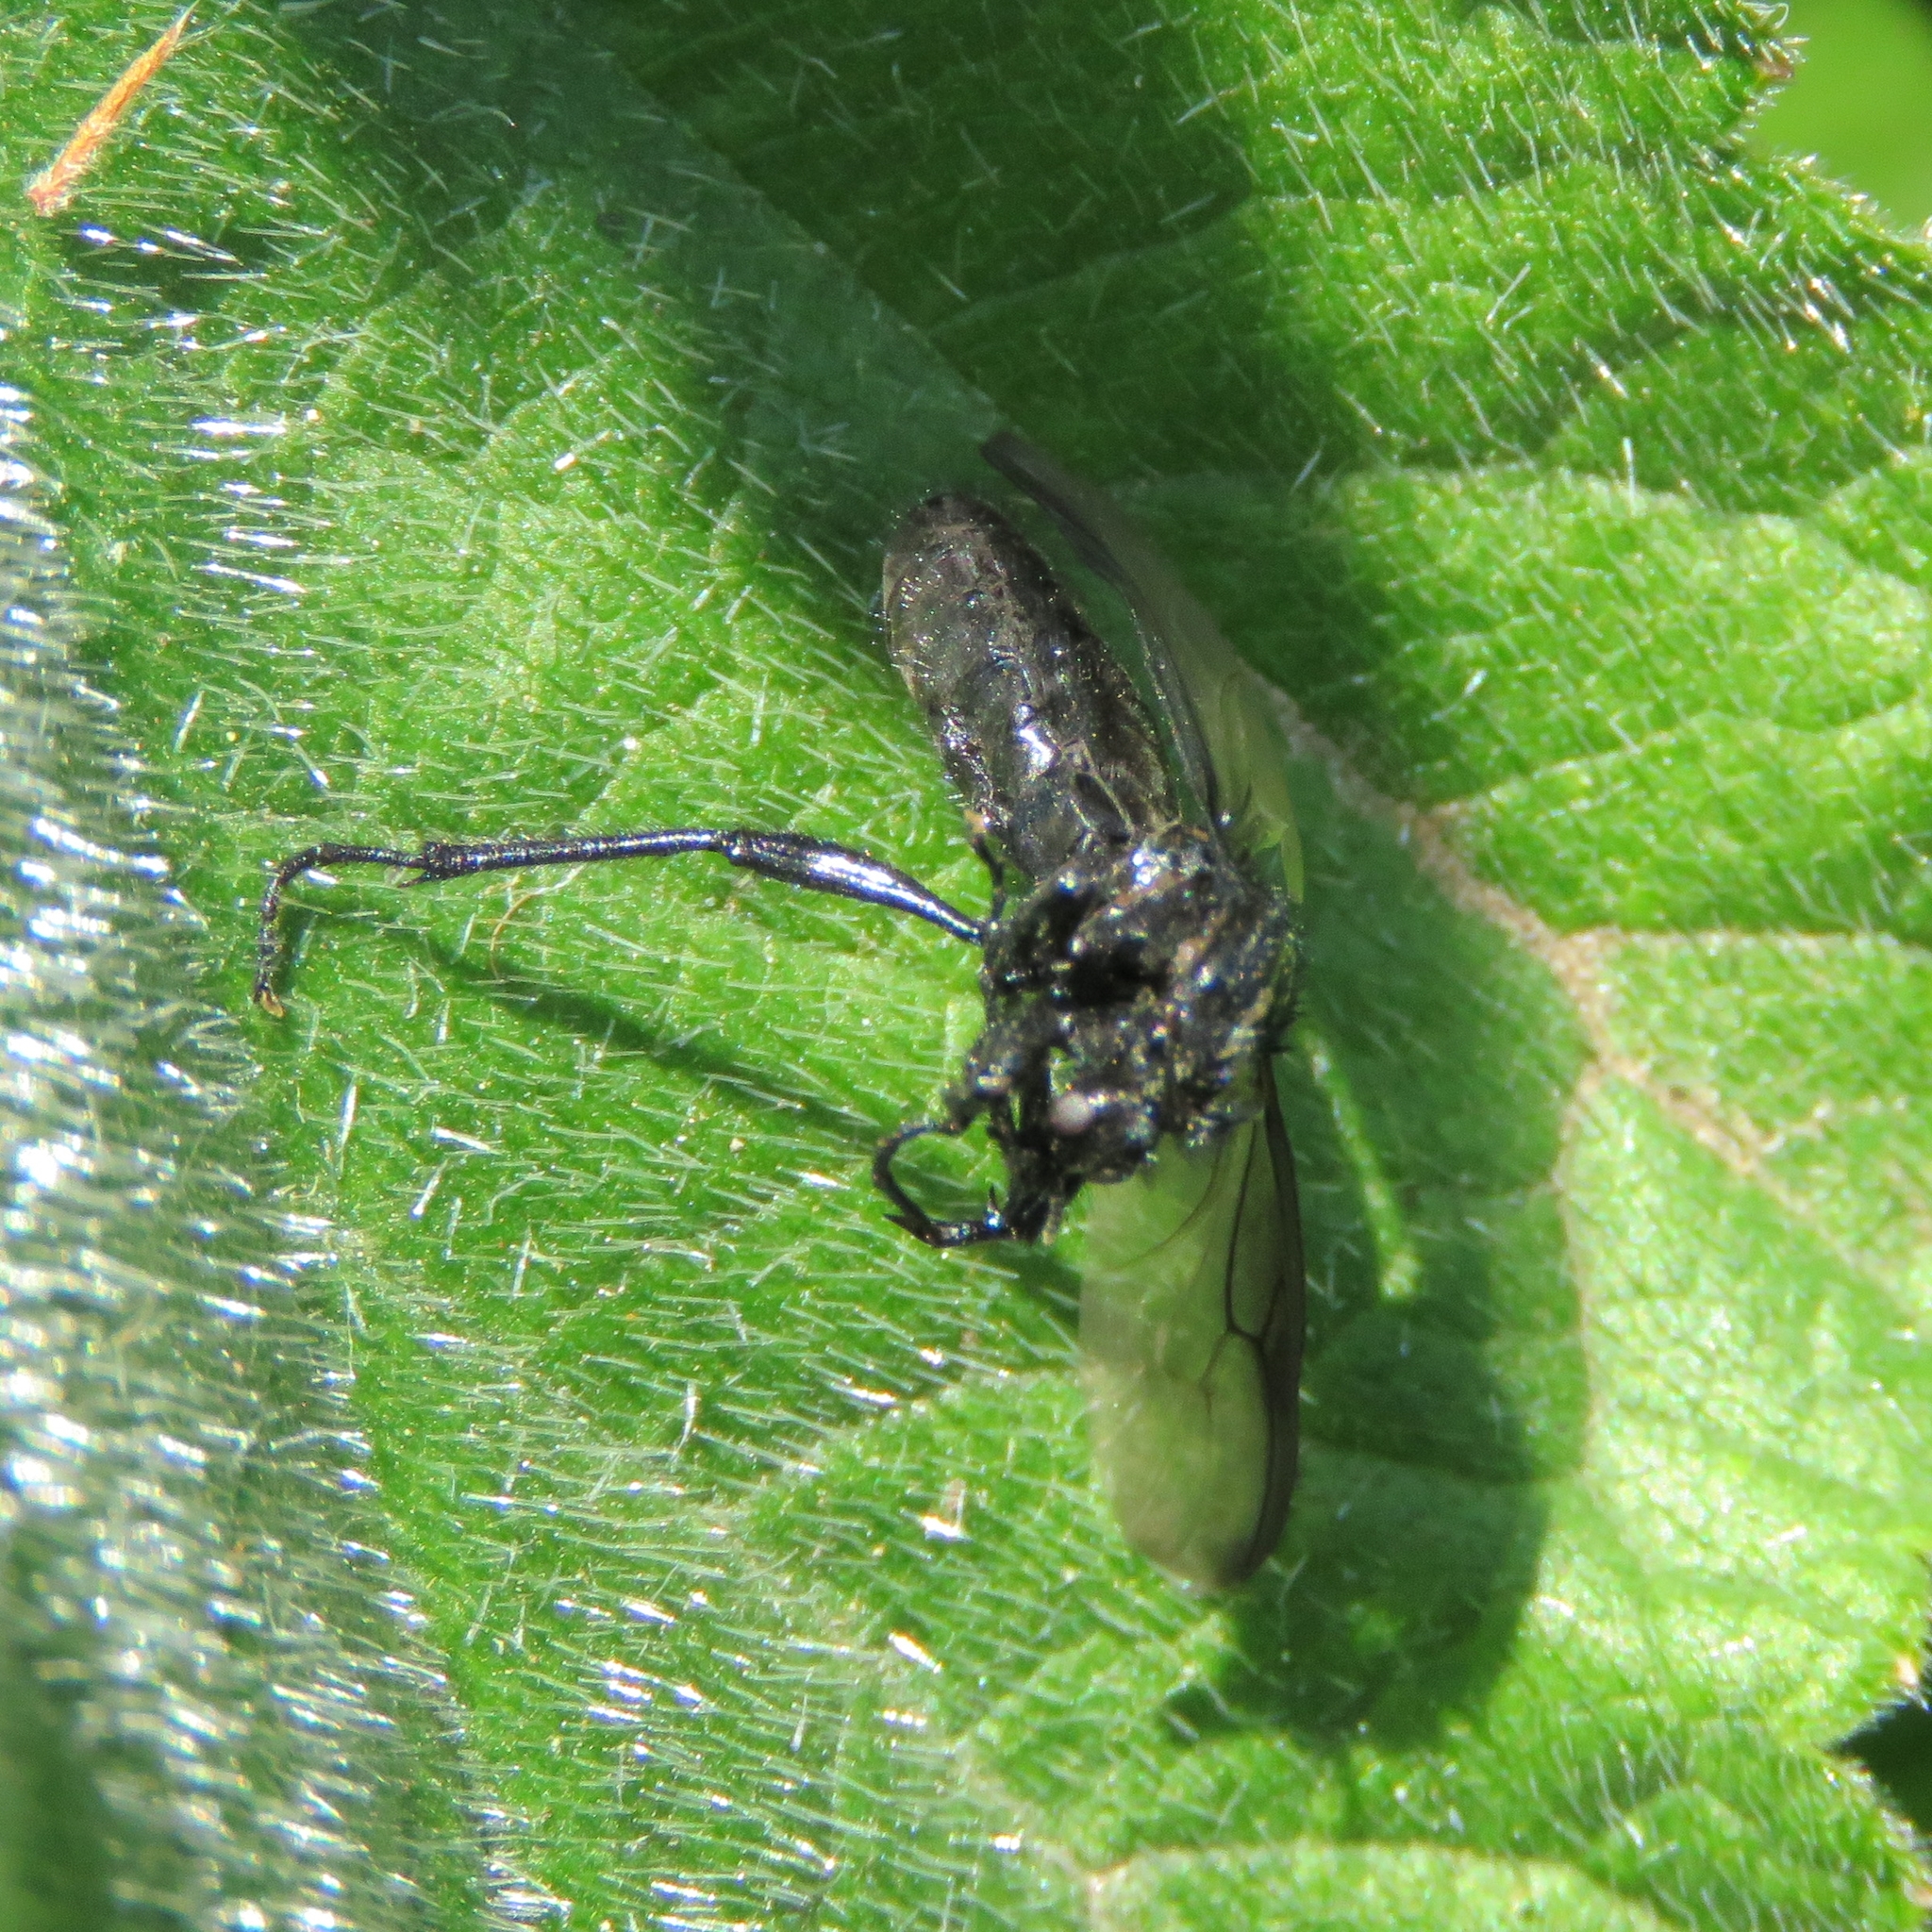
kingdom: Animalia
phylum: Arthropoda
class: Insecta
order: Diptera
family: Bibionidae
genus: Bibio
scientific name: Bibio marci
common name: St marks fly
